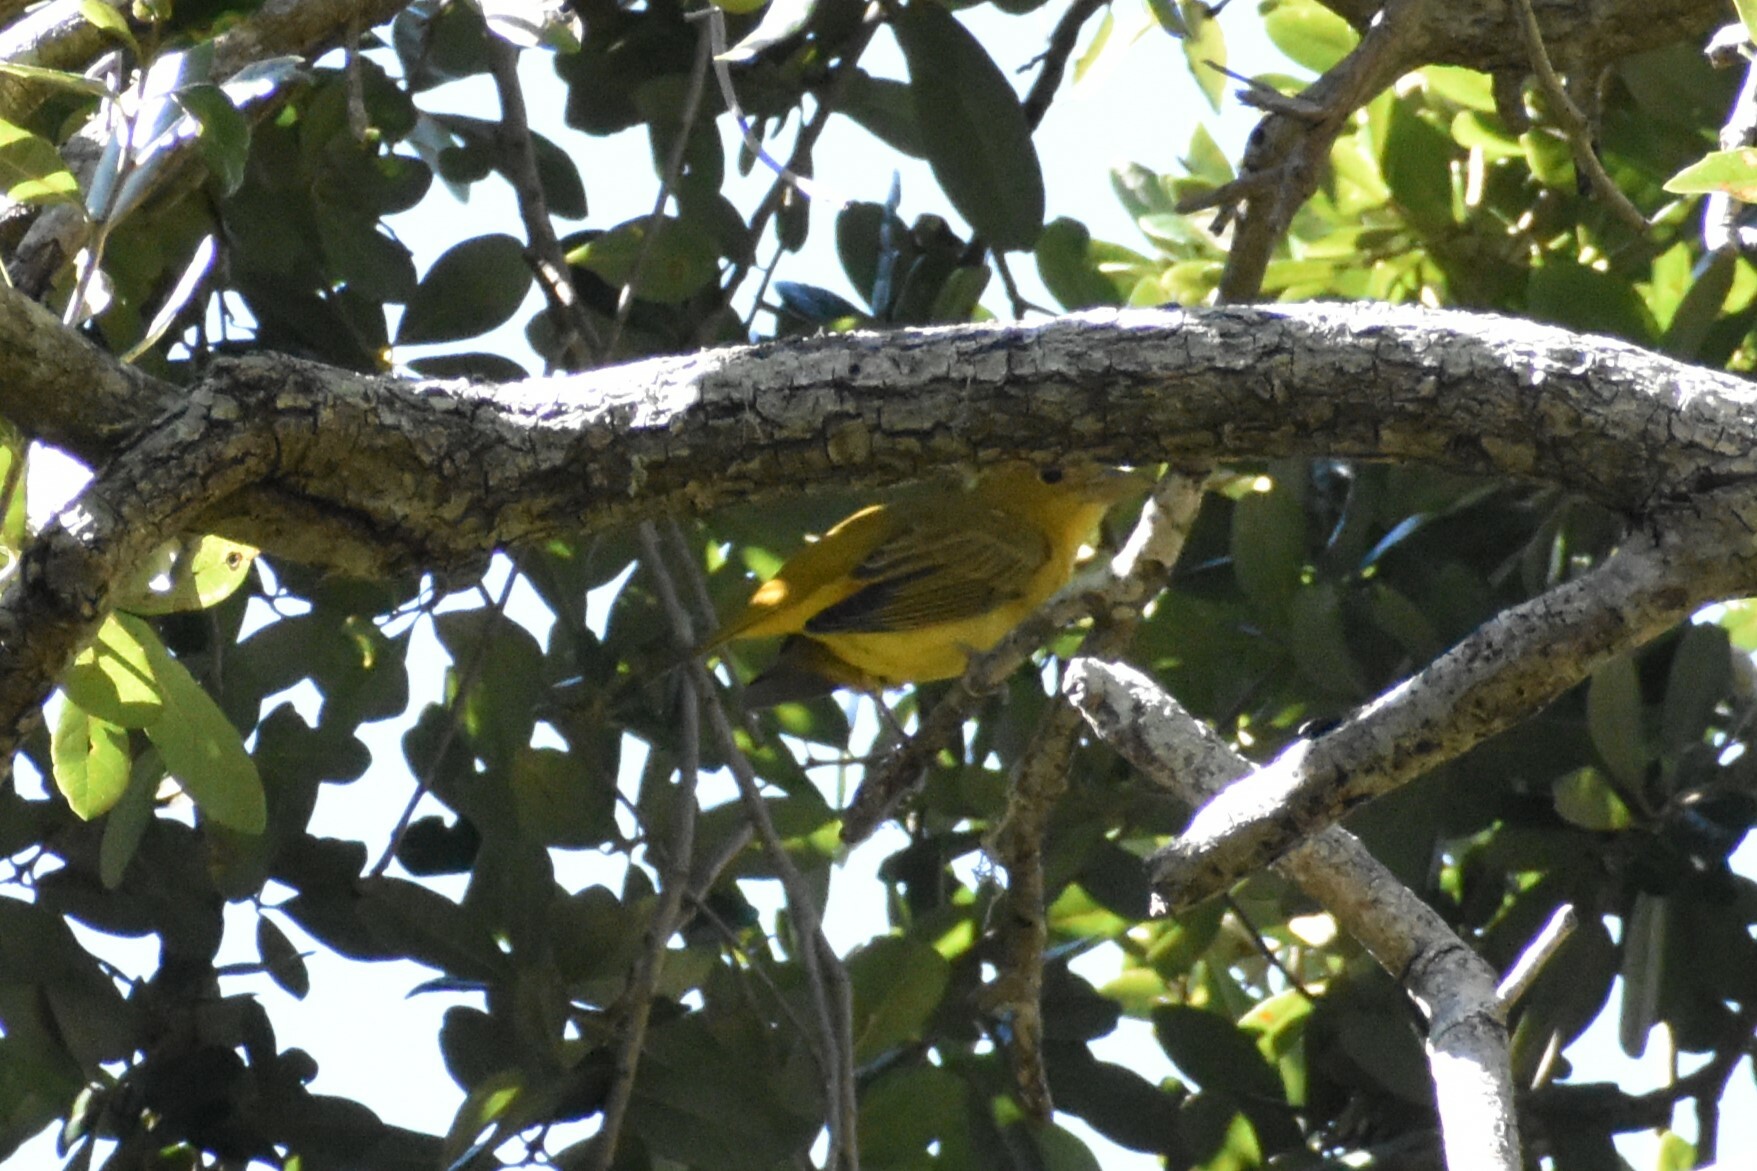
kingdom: Animalia
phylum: Chordata
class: Aves
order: Passeriformes
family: Cardinalidae
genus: Piranga
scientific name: Piranga rubra
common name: Summer tanager
